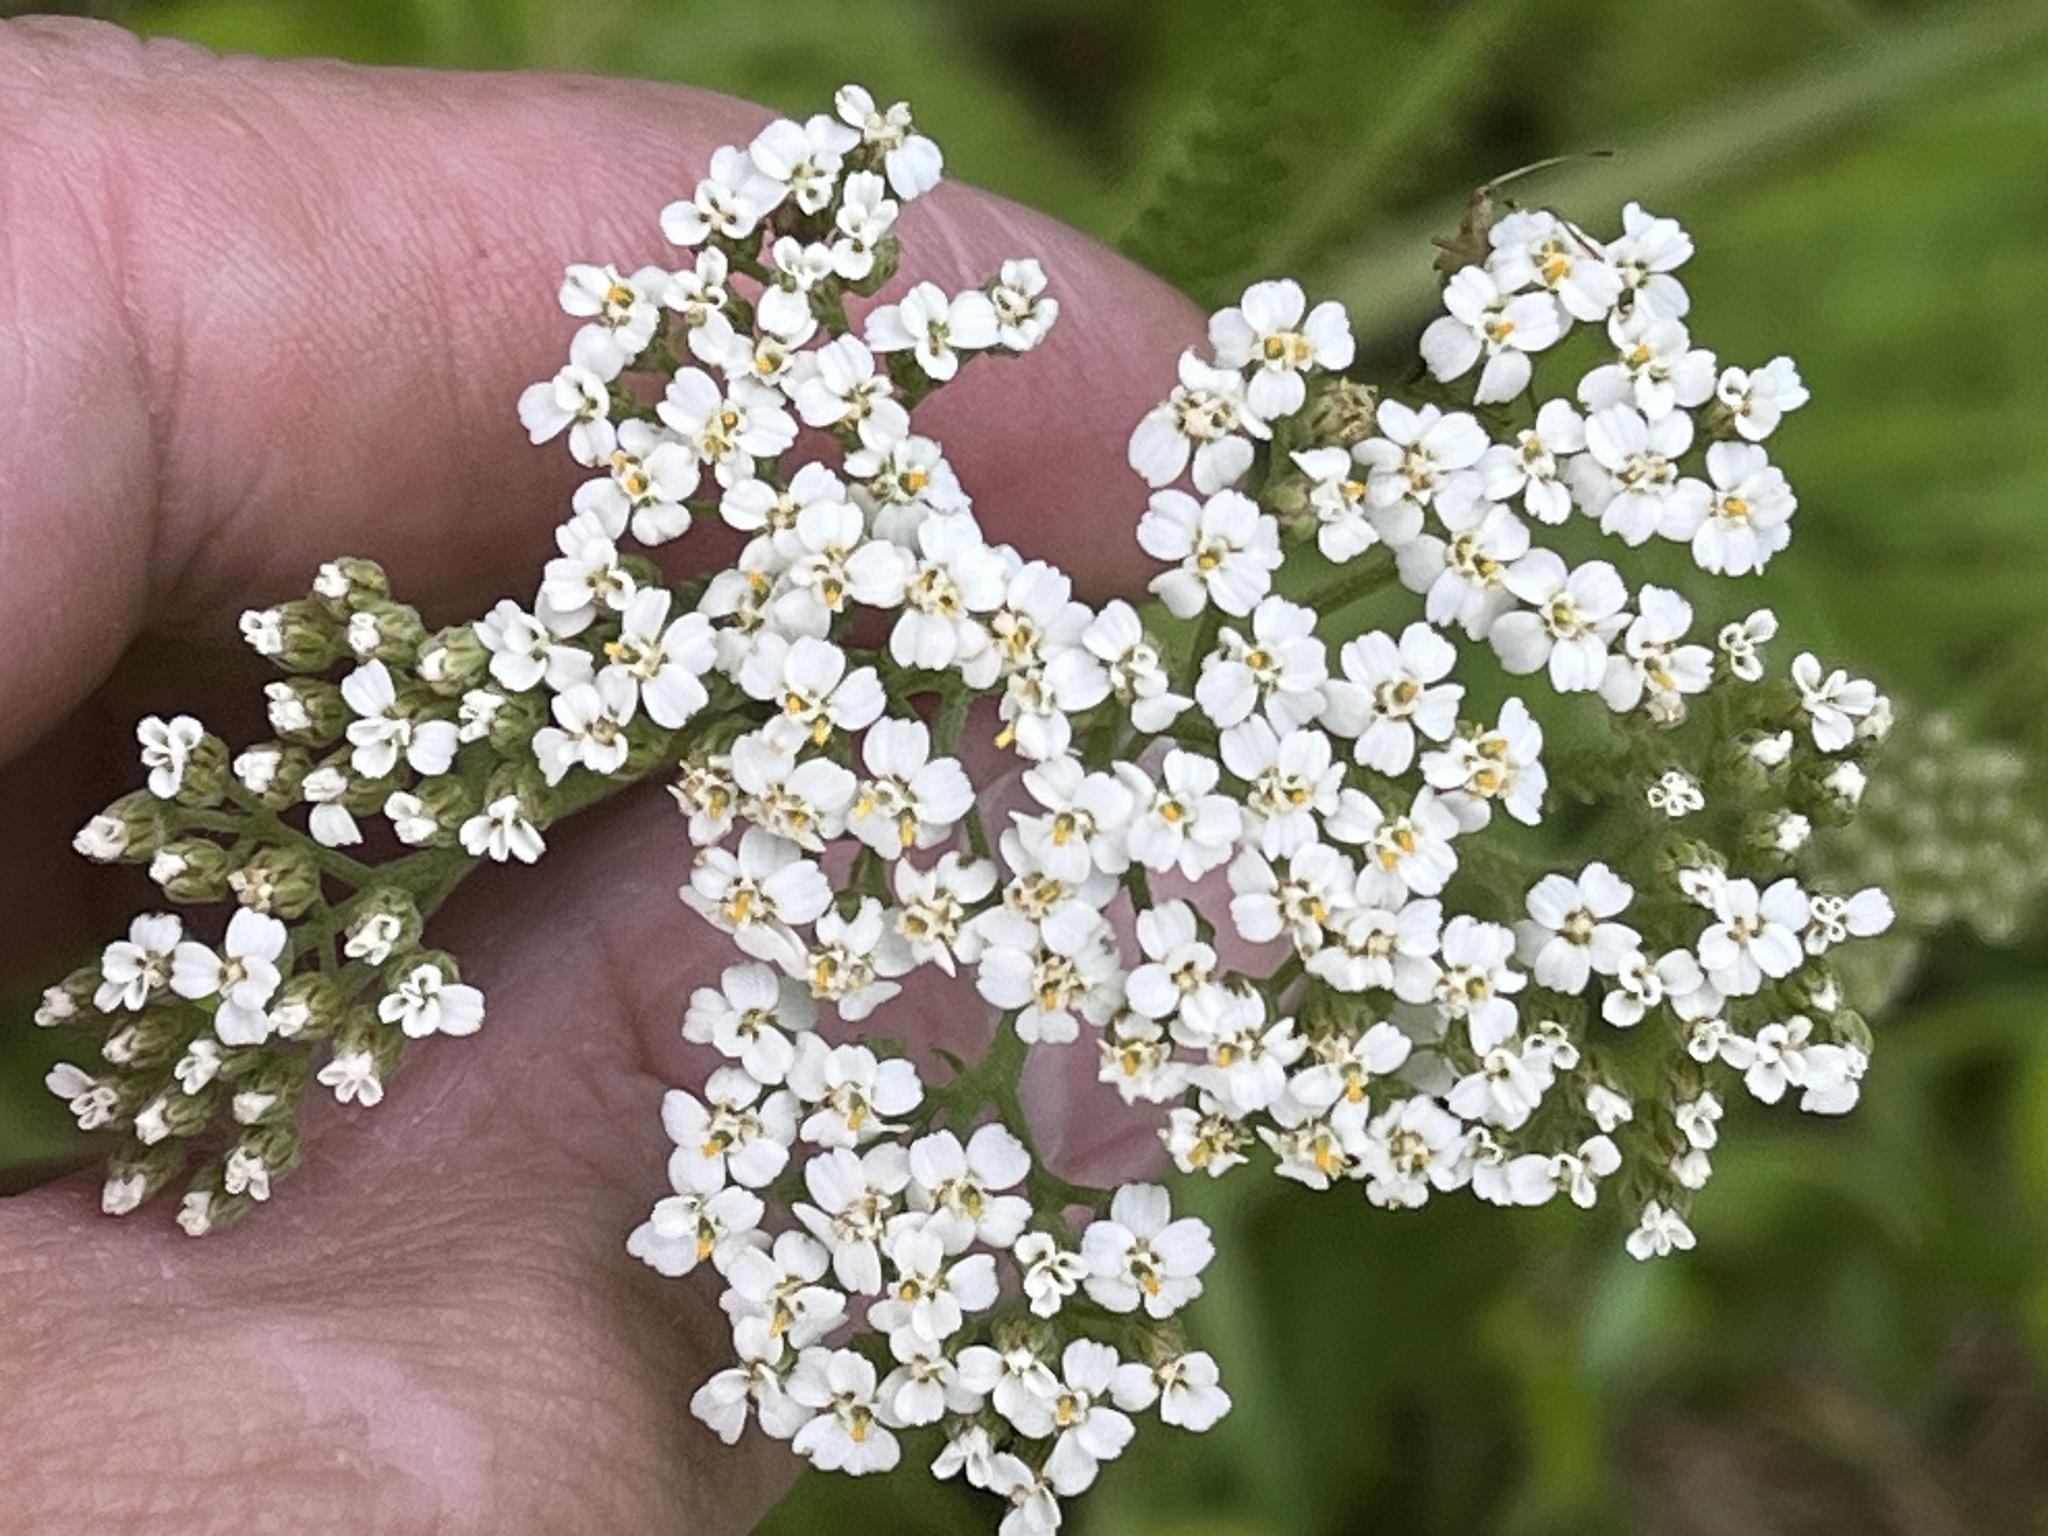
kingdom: Plantae
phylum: Tracheophyta
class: Magnoliopsida
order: Asterales
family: Asteraceae
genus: Achillea
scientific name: Achillea millefolium
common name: Yarrow
